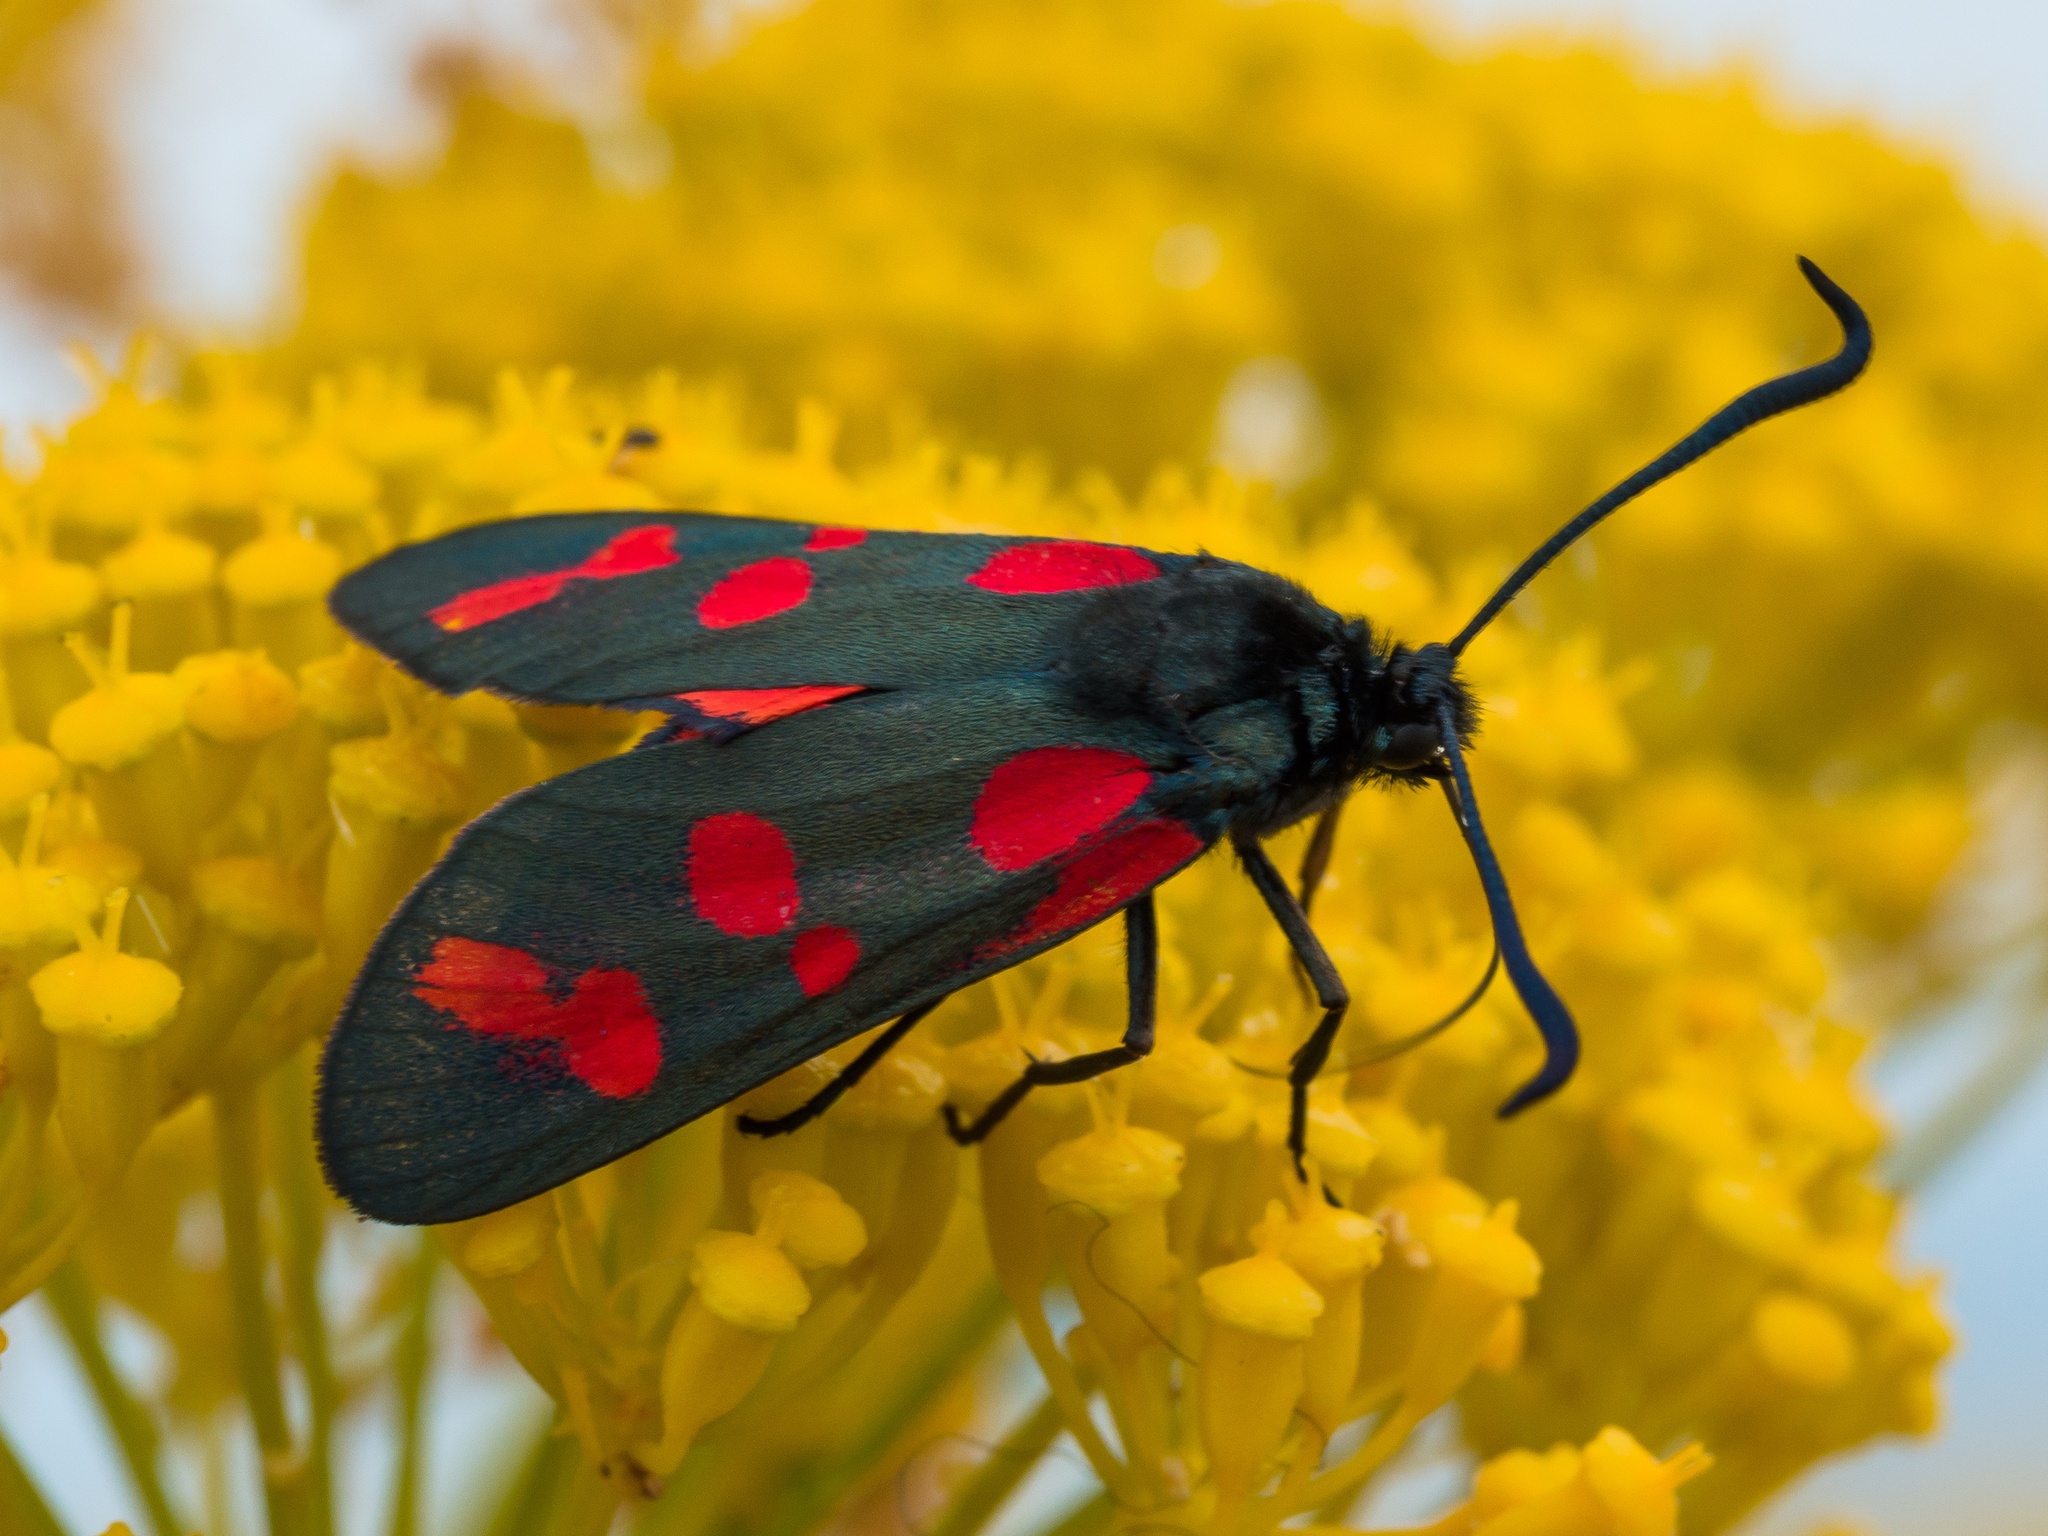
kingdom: Animalia
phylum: Arthropoda
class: Insecta
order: Lepidoptera
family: Zygaenidae
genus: Zygaena
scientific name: Zygaena filipendulae
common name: Six-spot burnet
